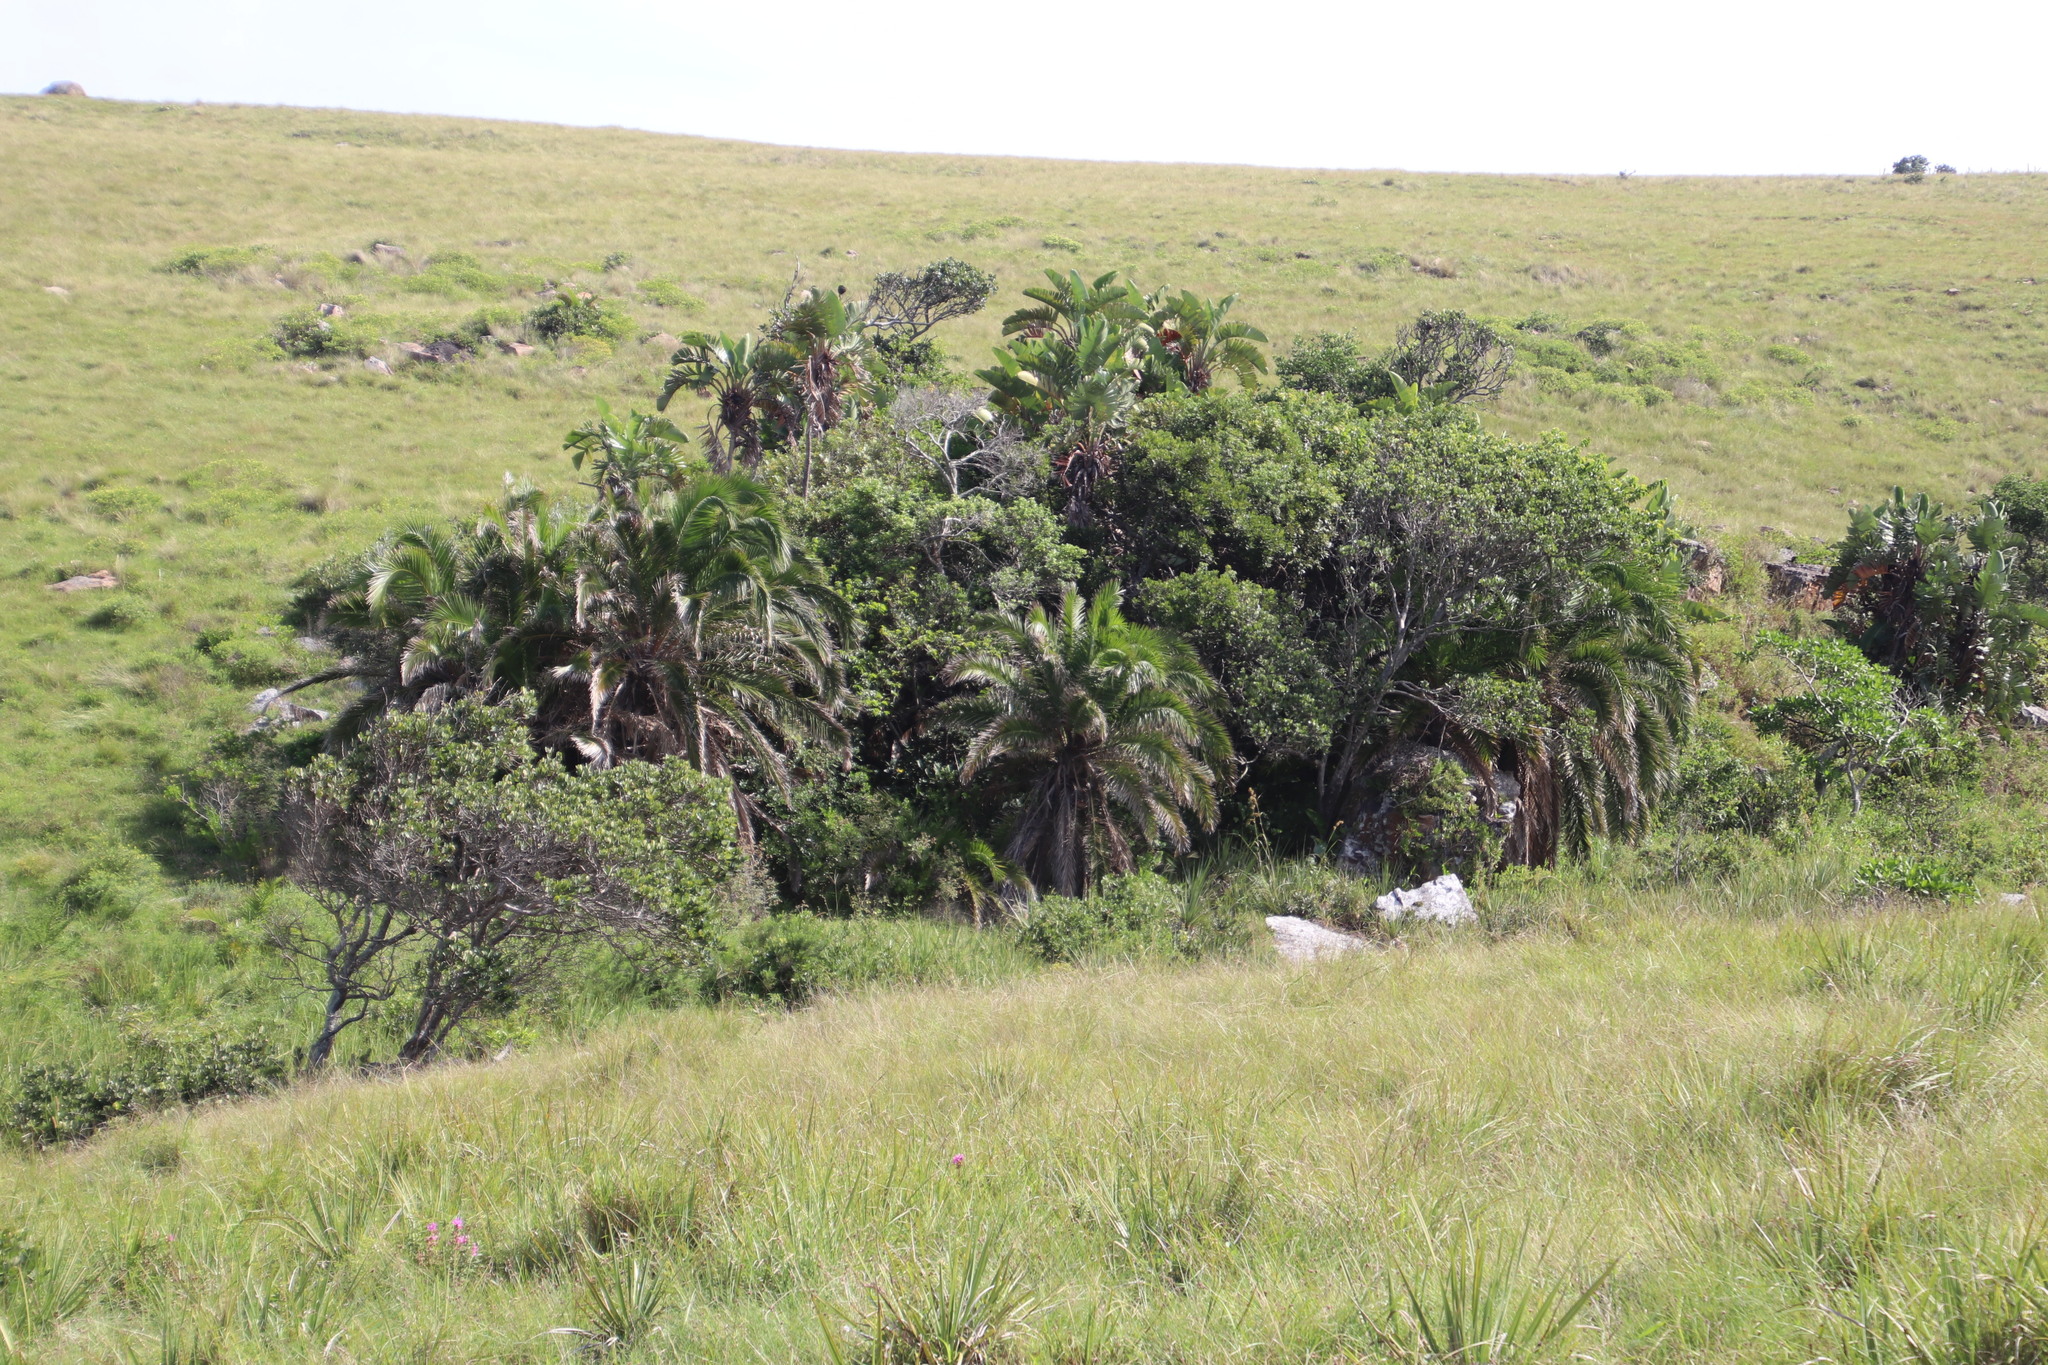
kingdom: Plantae
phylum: Tracheophyta
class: Liliopsida
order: Arecales
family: Arecaceae
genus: Phoenix
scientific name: Phoenix reclinata
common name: Senegal date palm
